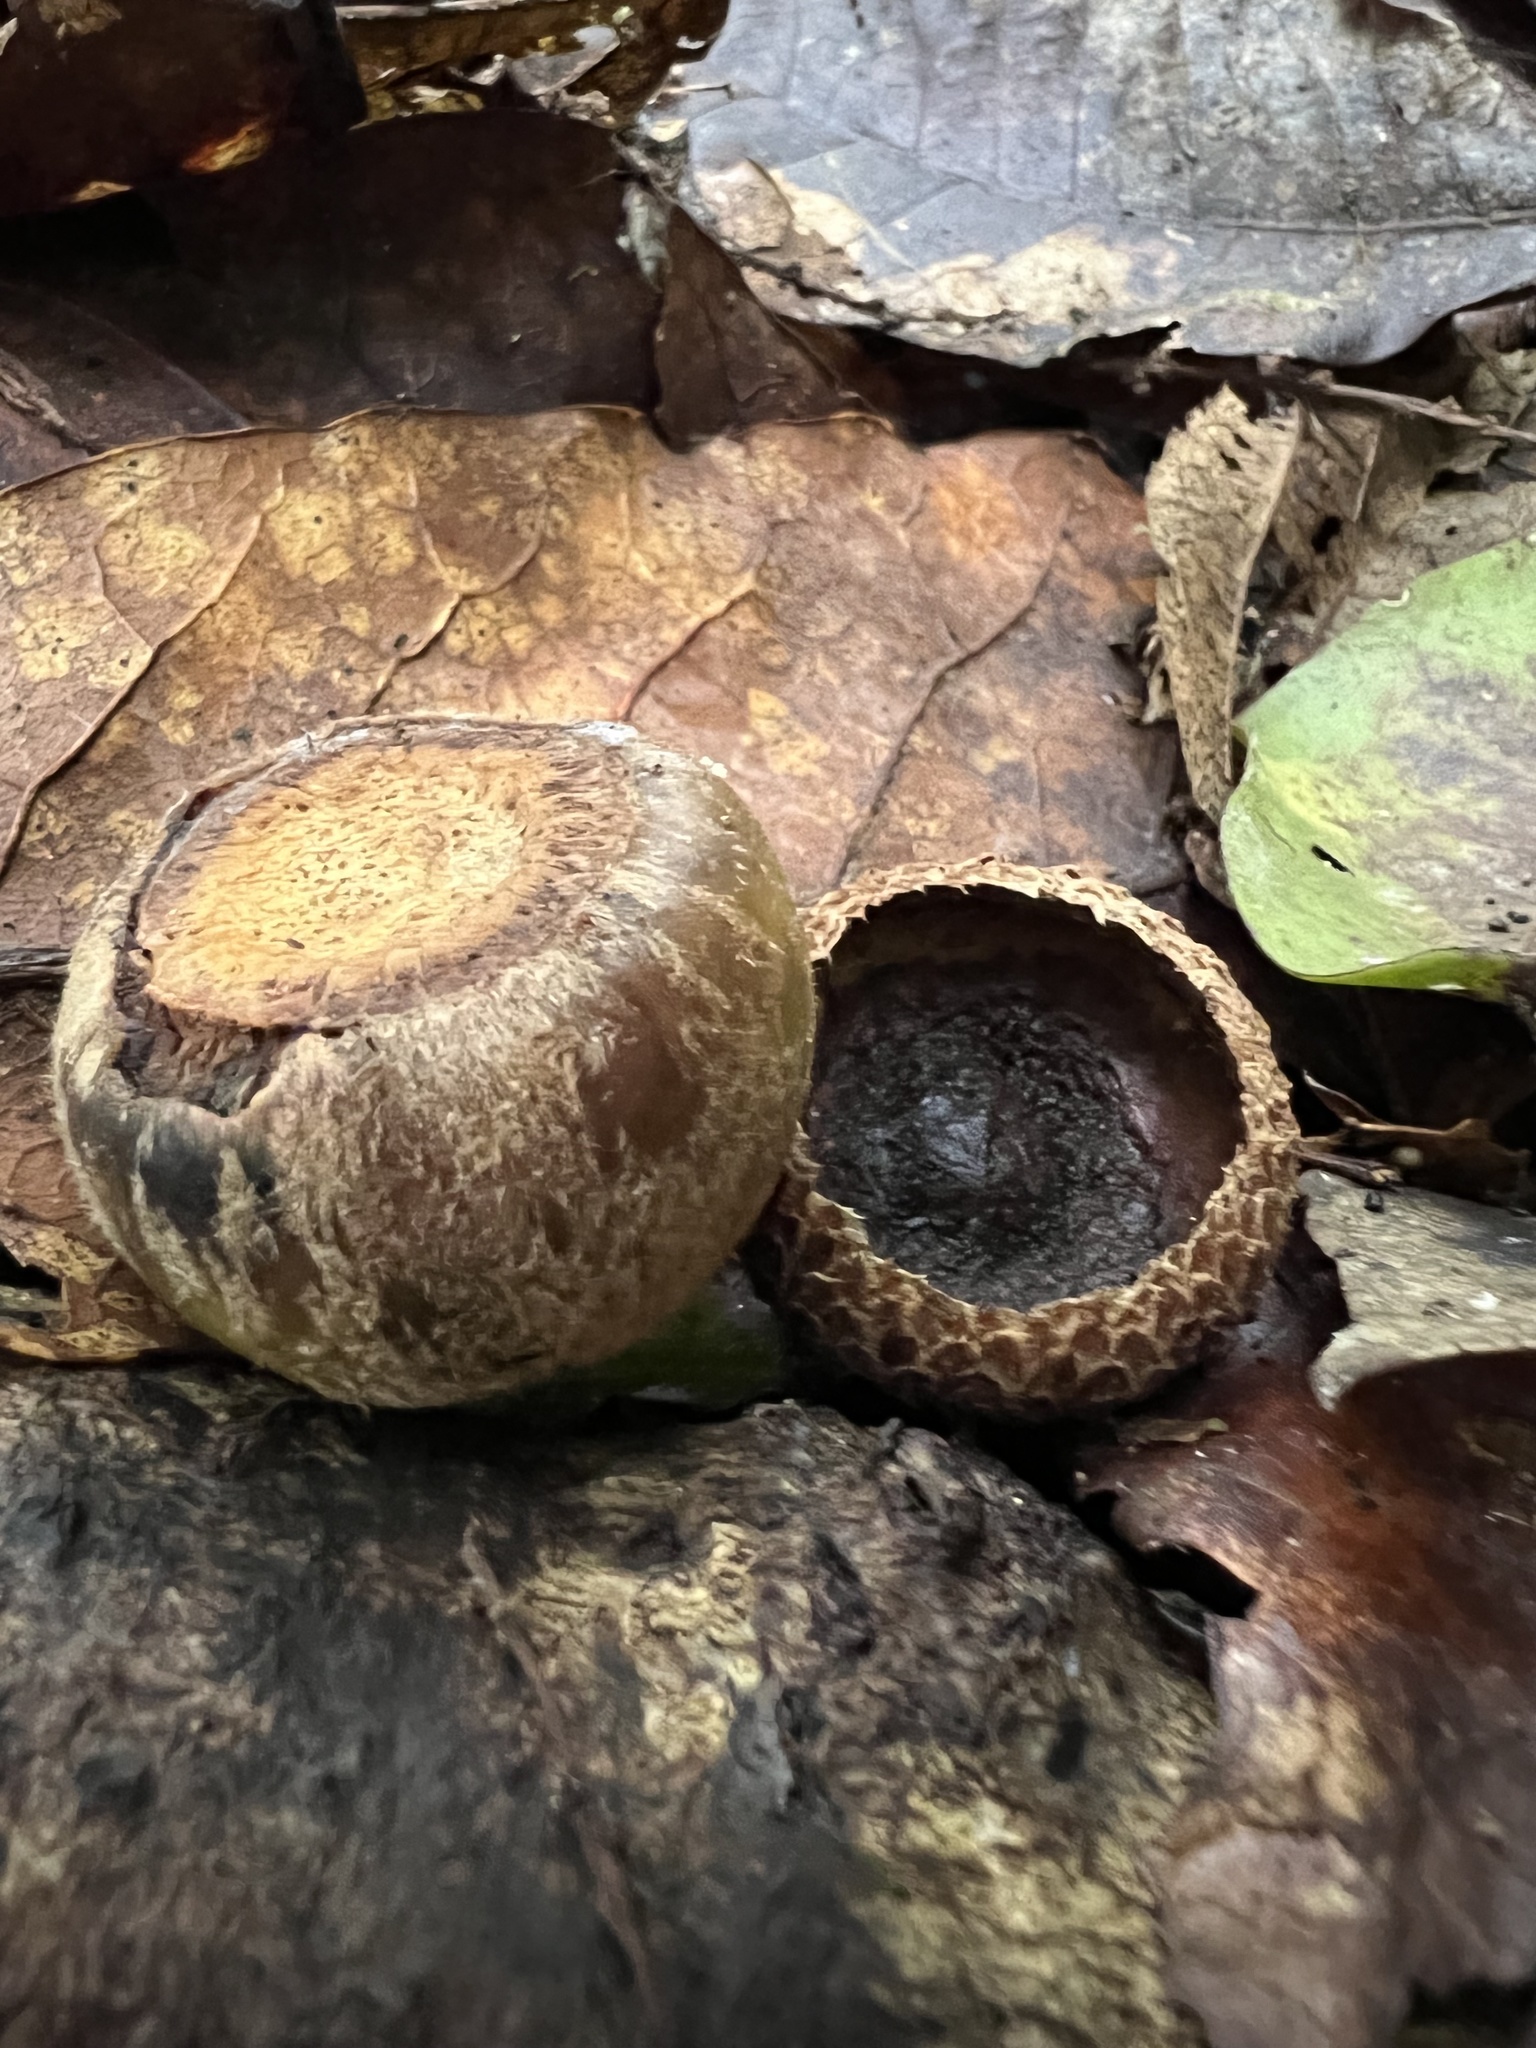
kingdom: Plantae
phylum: Tracheophyta
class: Magnoliopsida
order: Fagales
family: Fagaceae
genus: Quercus
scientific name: Quercus humboldtii
